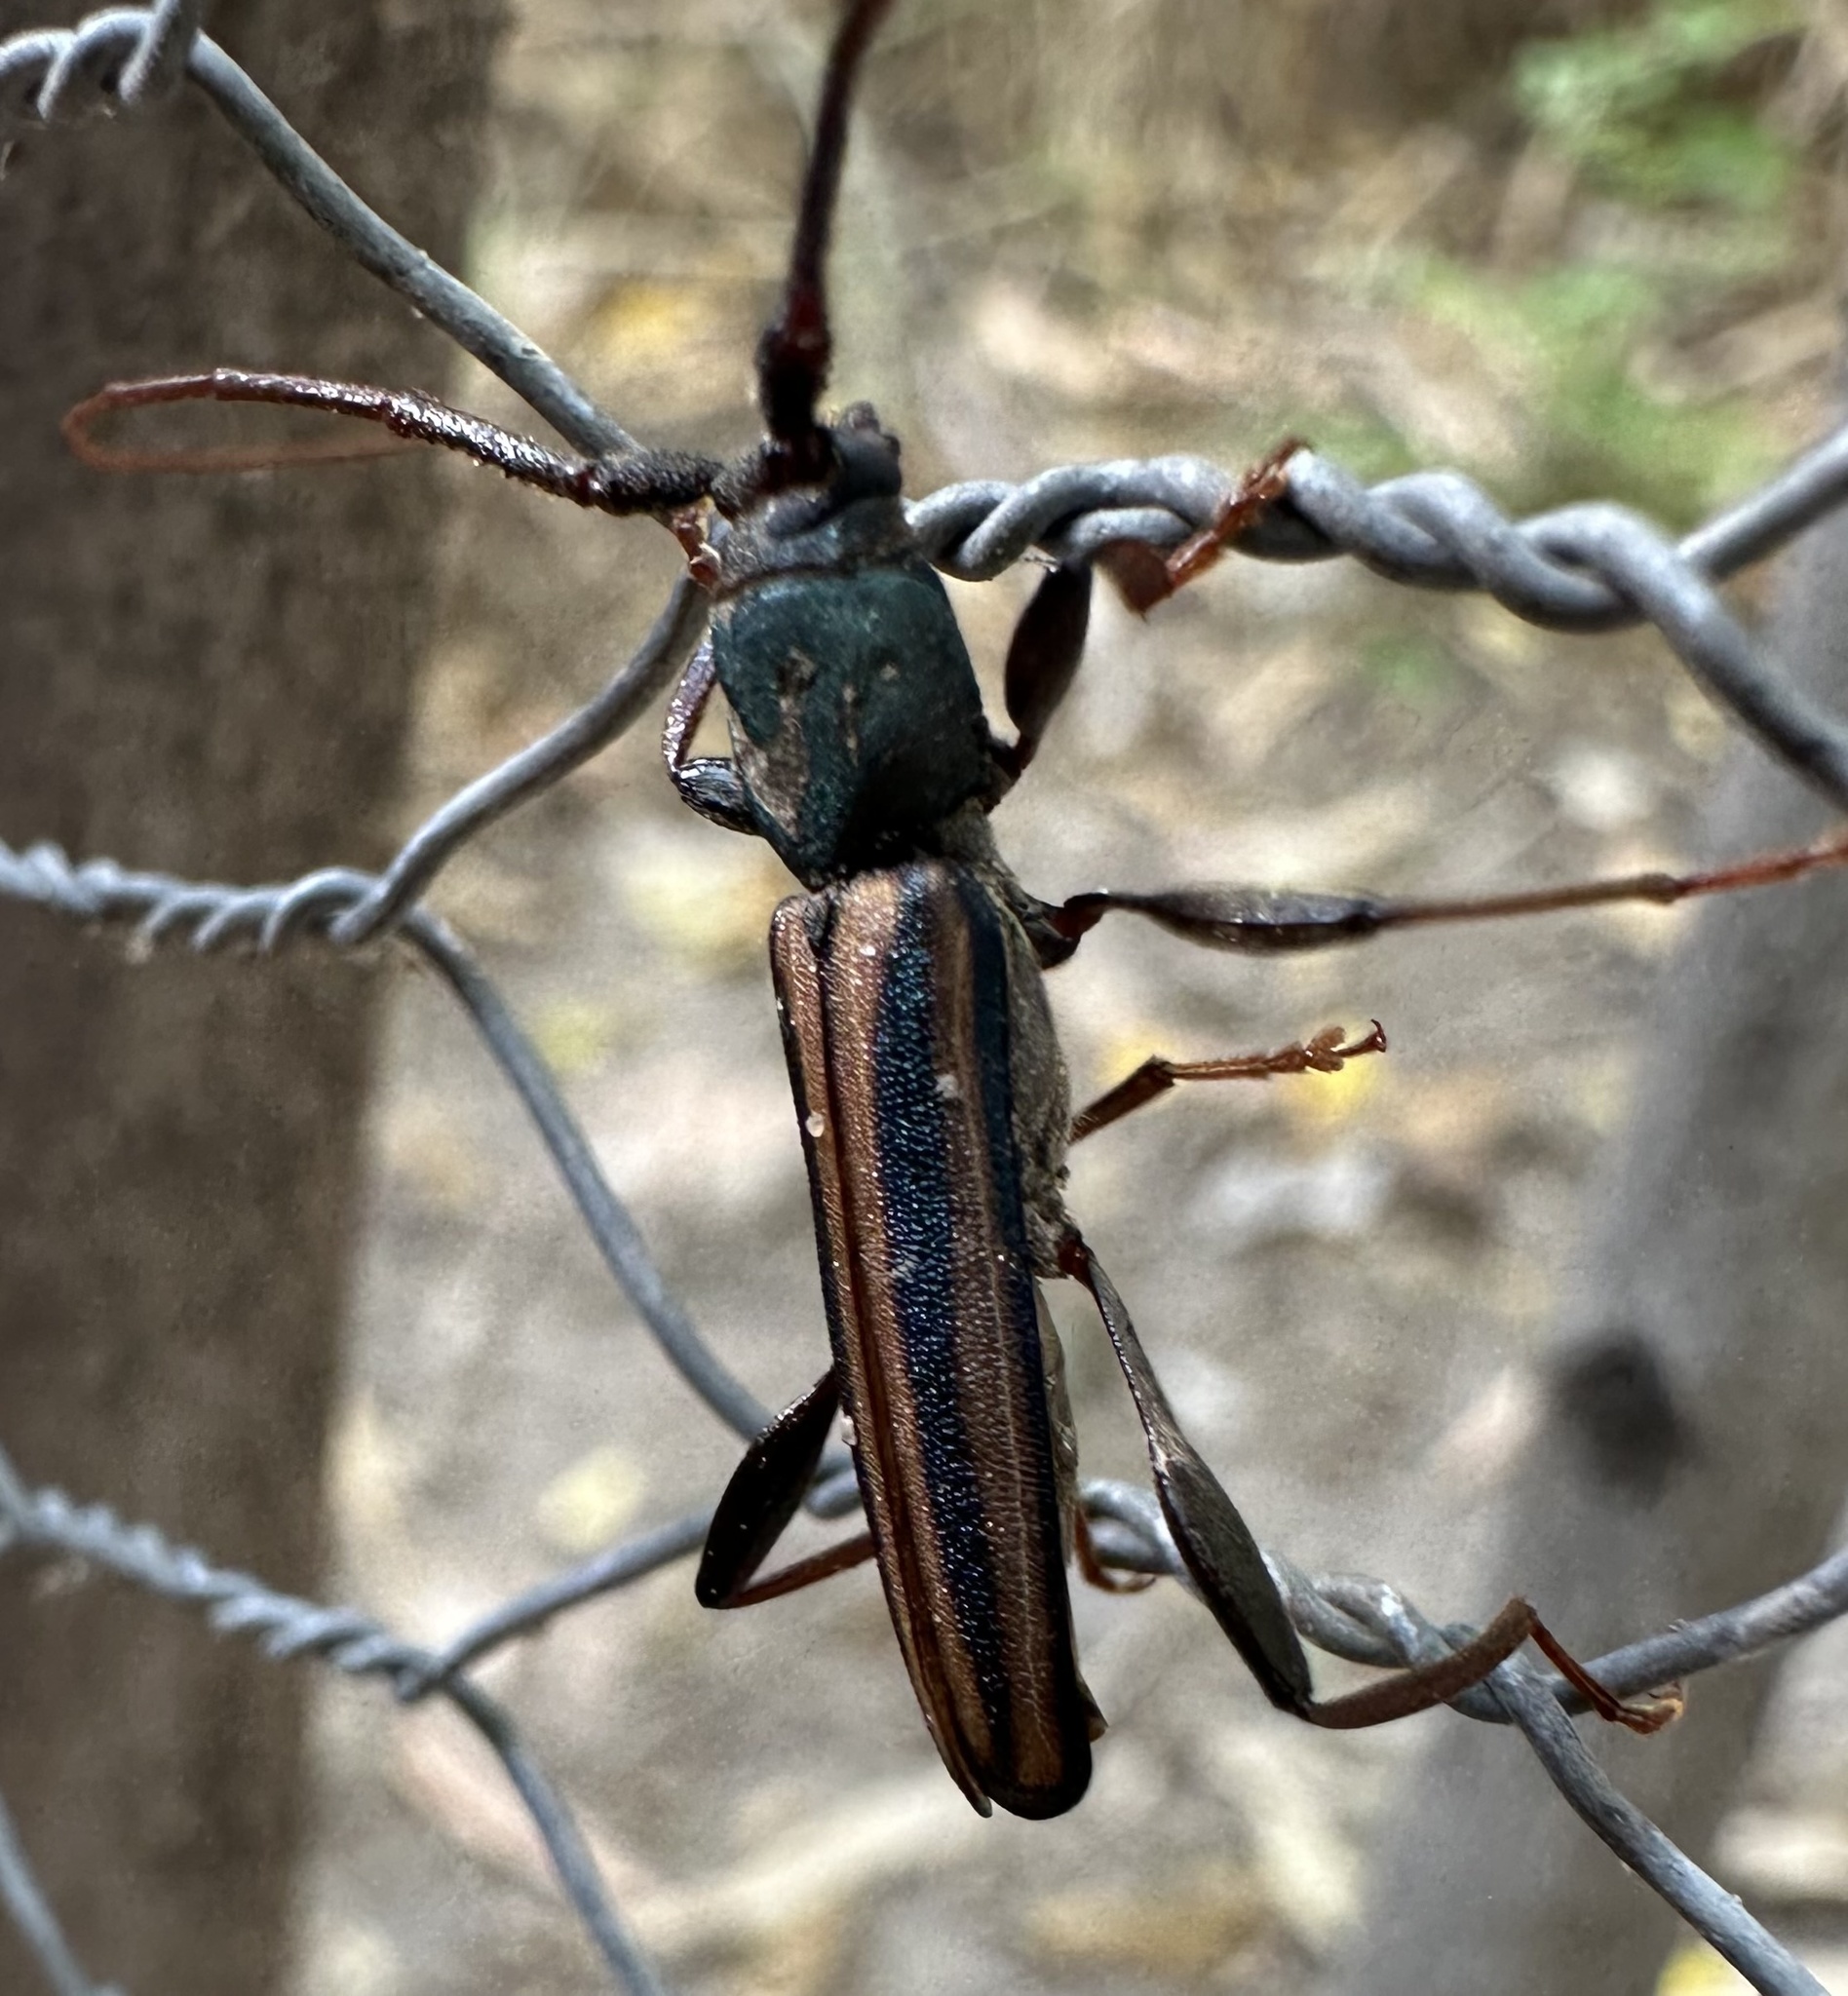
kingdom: Animalia
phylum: Arthropoda
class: Insecta
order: Coleoptera
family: Cerambycidae
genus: Xystrocera
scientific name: Xystrocera dispar
